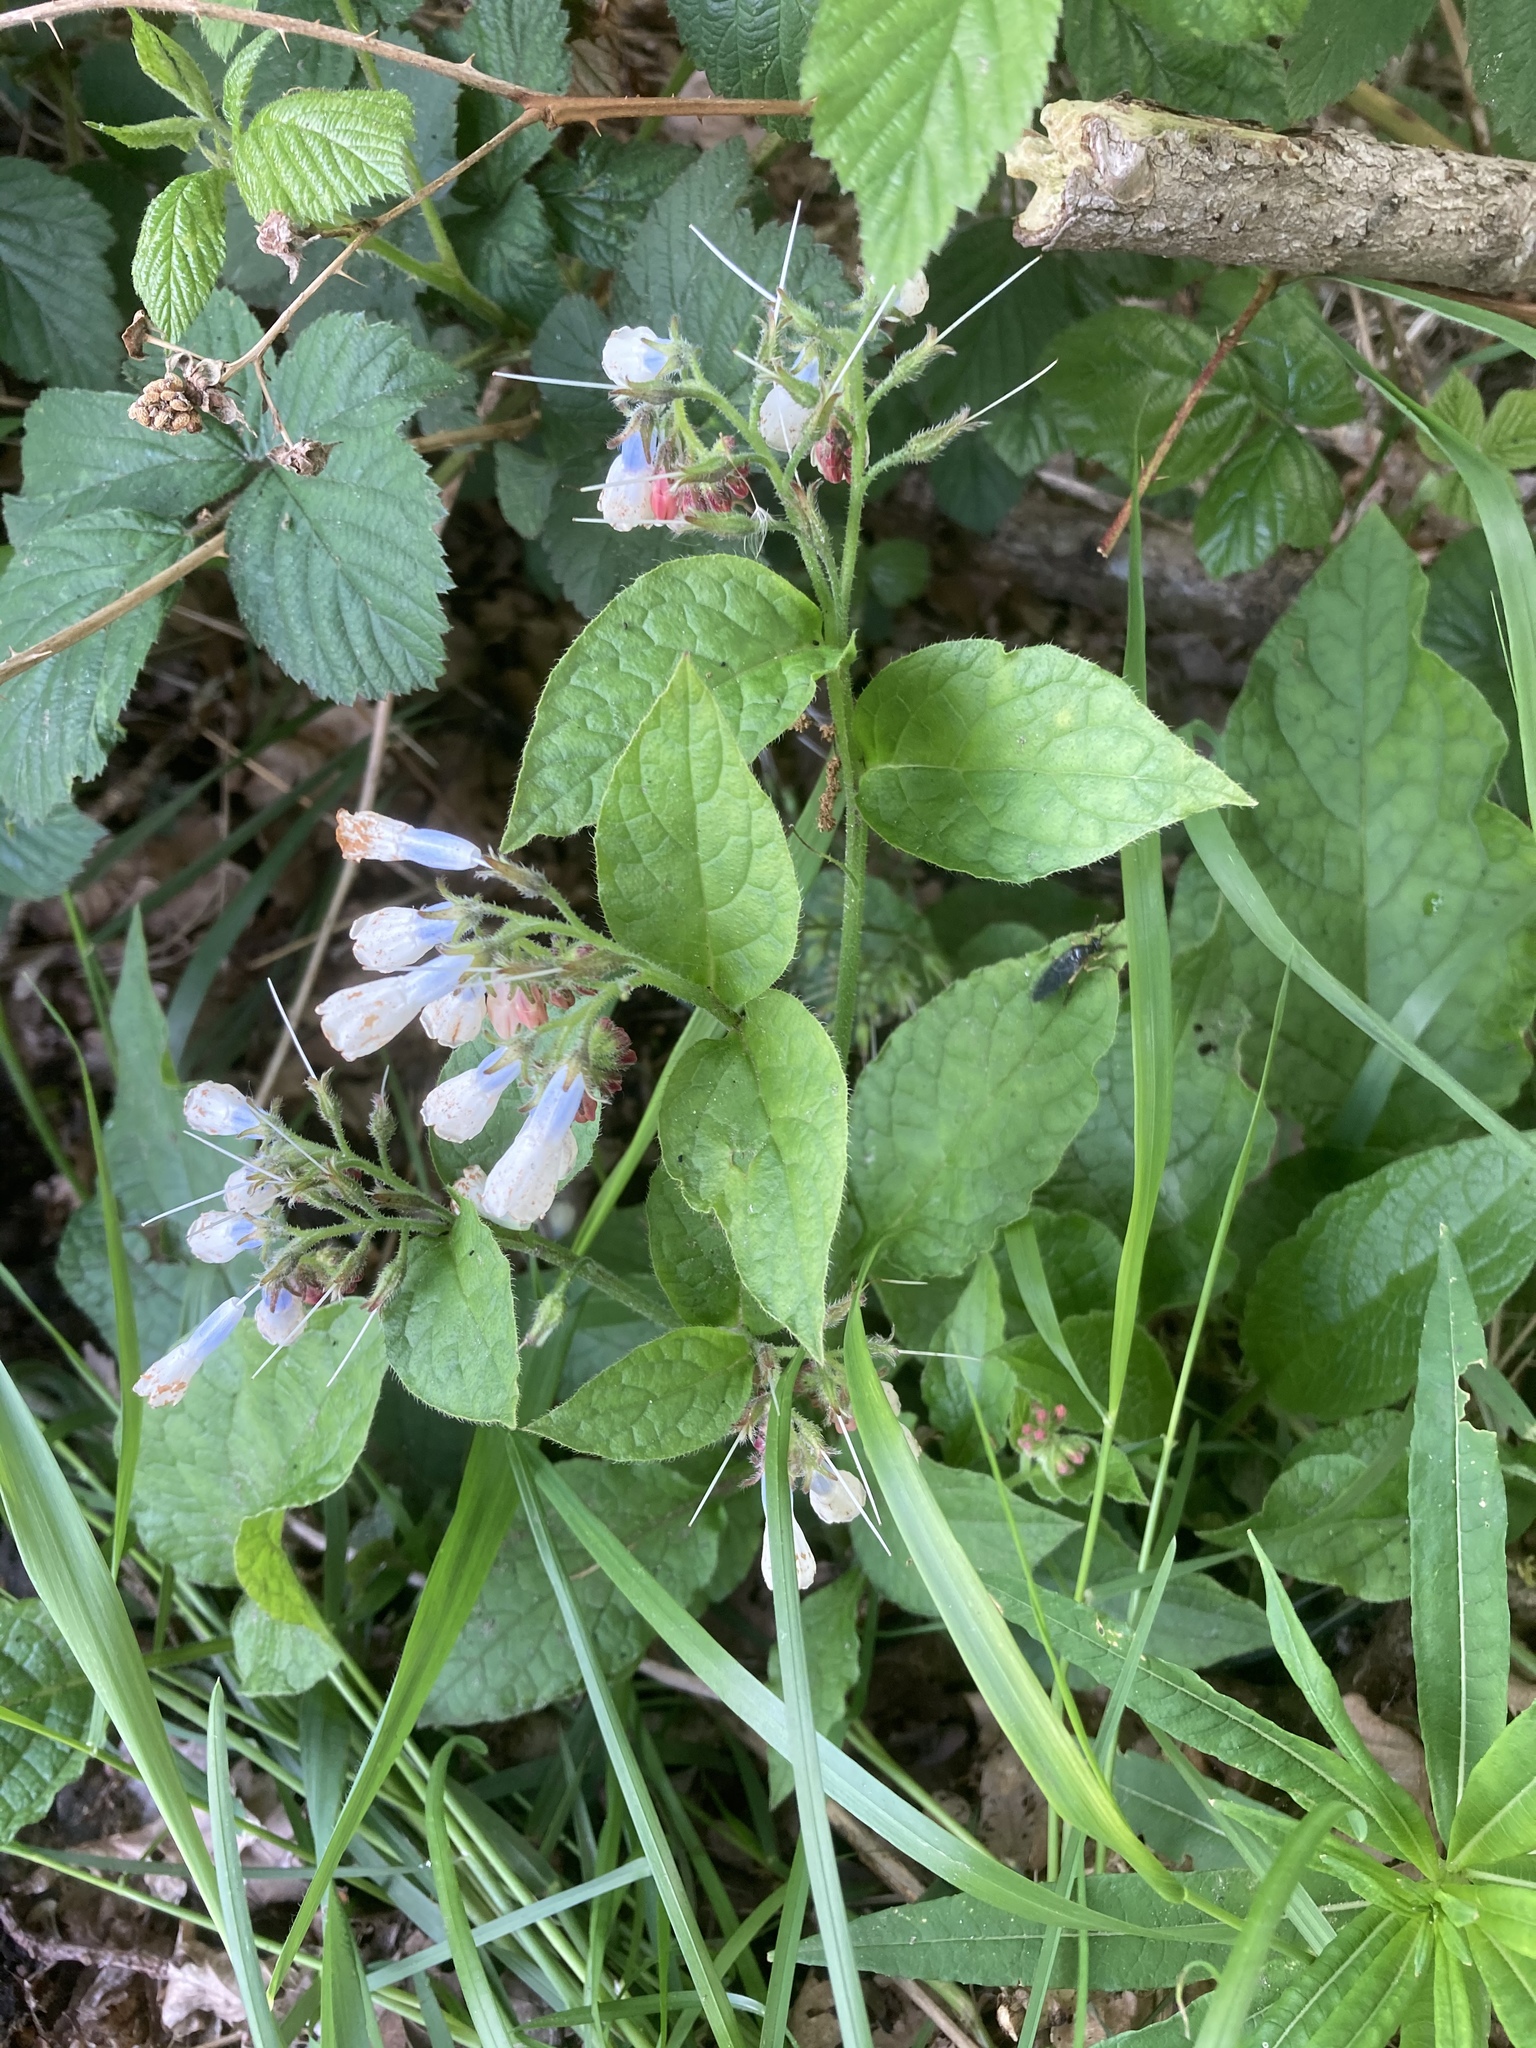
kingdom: Plantae
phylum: Tracheophyta
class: Magnoliopsida
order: Boraginales
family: Boraginaceae
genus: Symphytum
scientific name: Symphytum officinale
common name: Common comfrey
